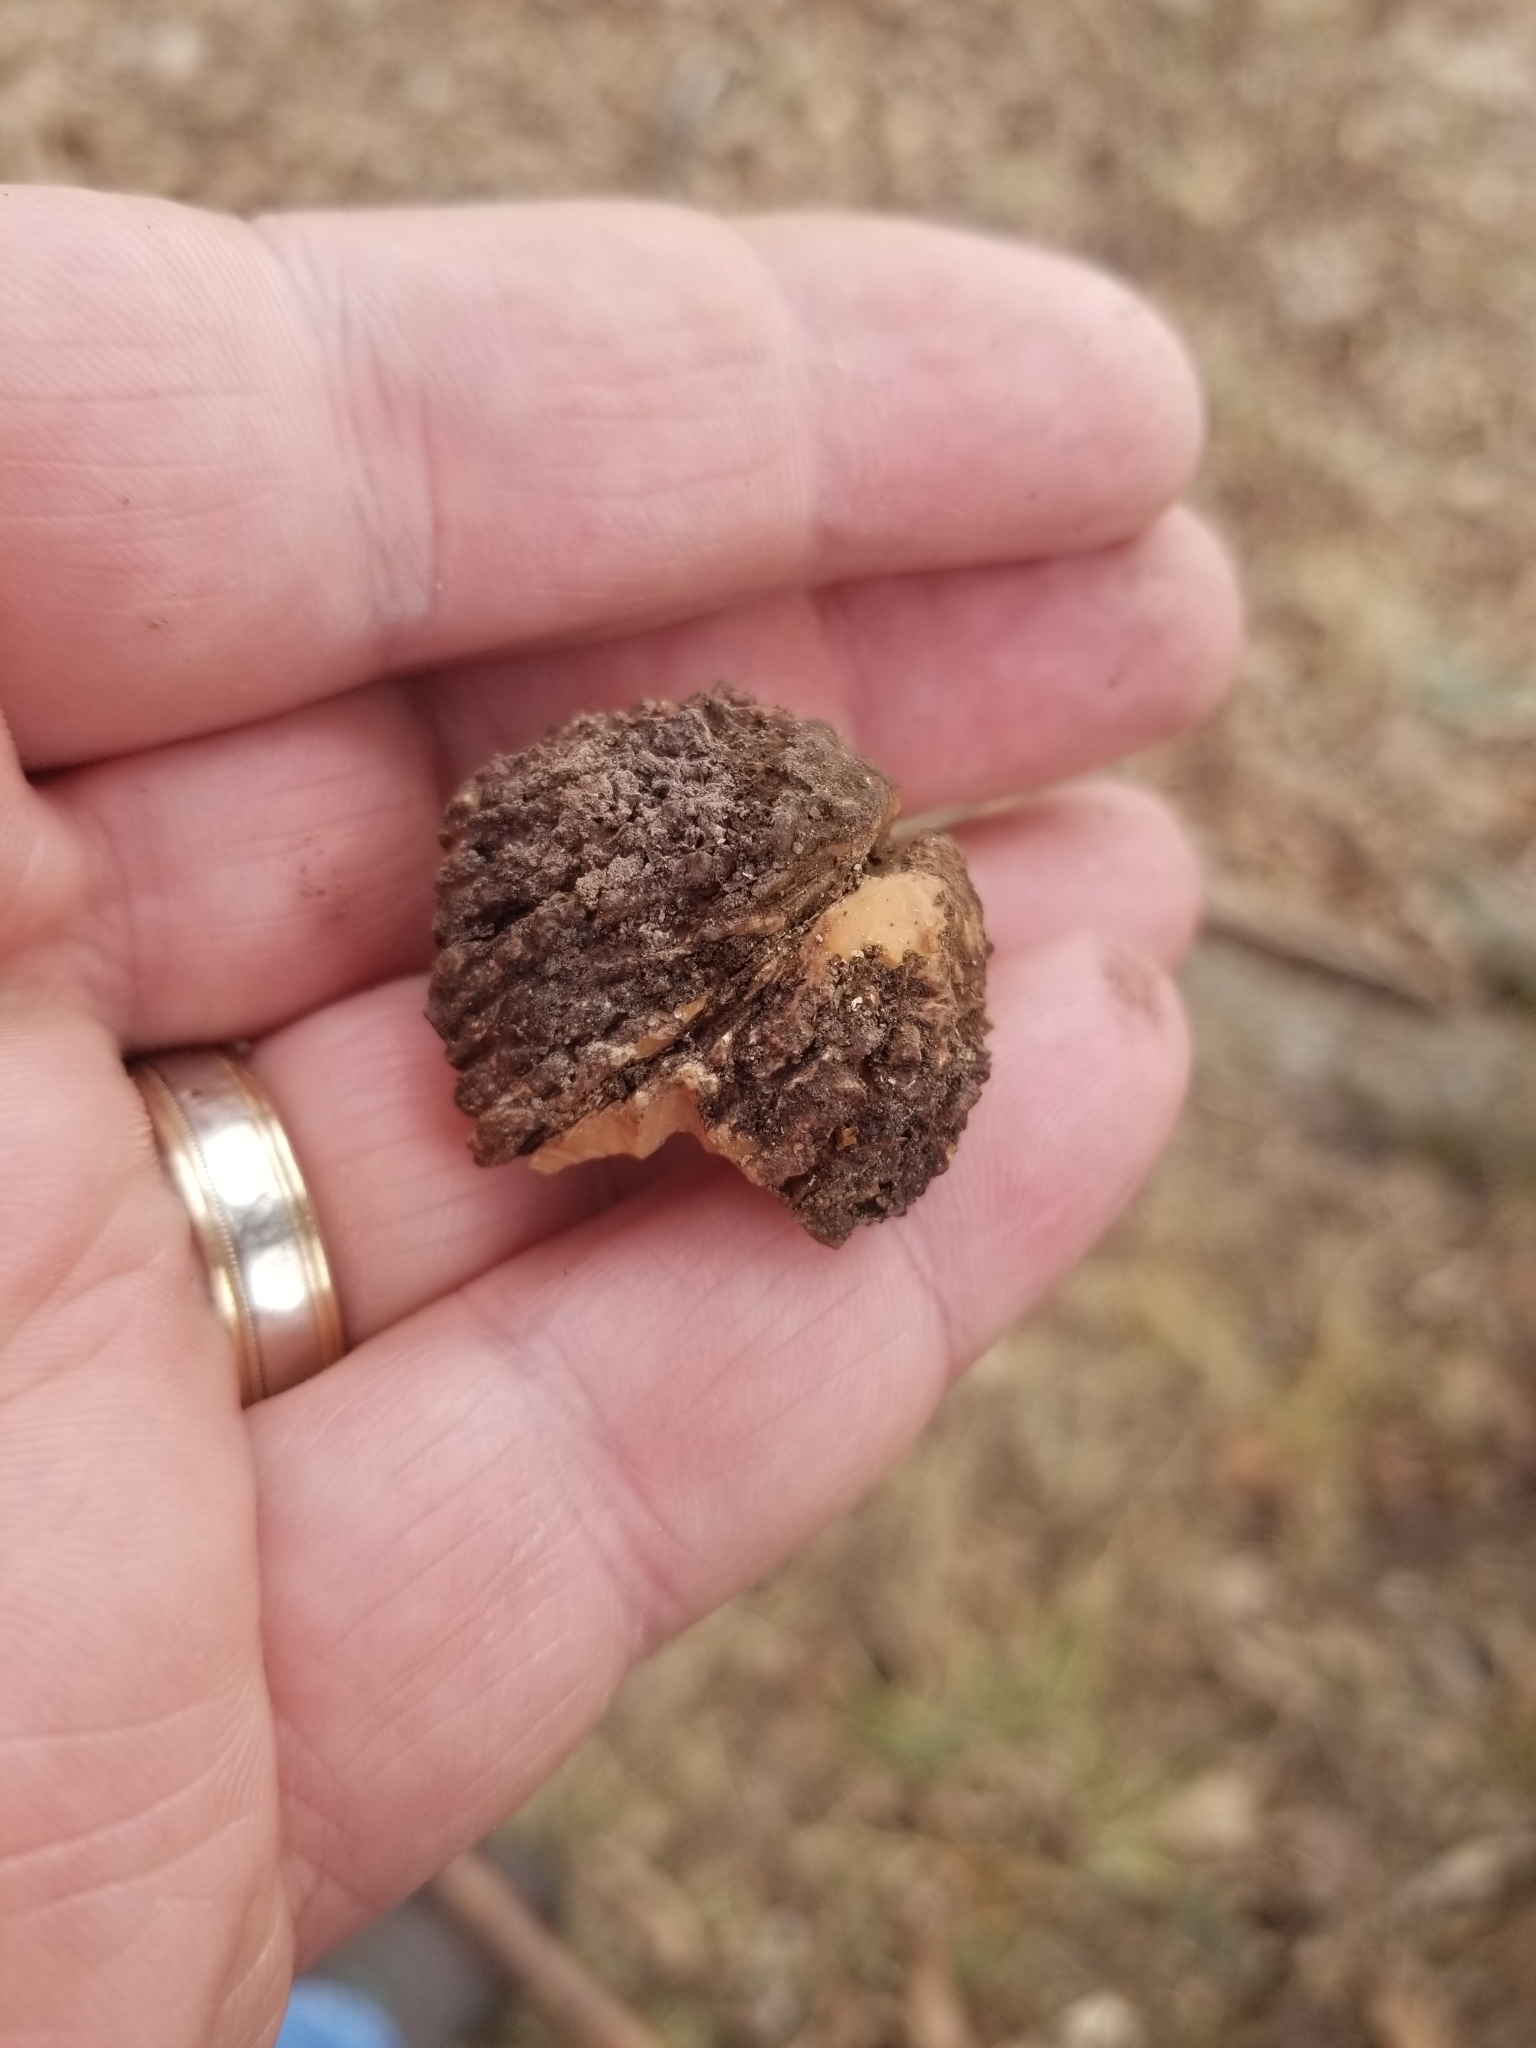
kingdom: Plantae
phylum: Tracheophyta
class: Magnoliopsida
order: Fagales
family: Juglandaceae
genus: Juglans
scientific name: Juglans nigra
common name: Black walnut
